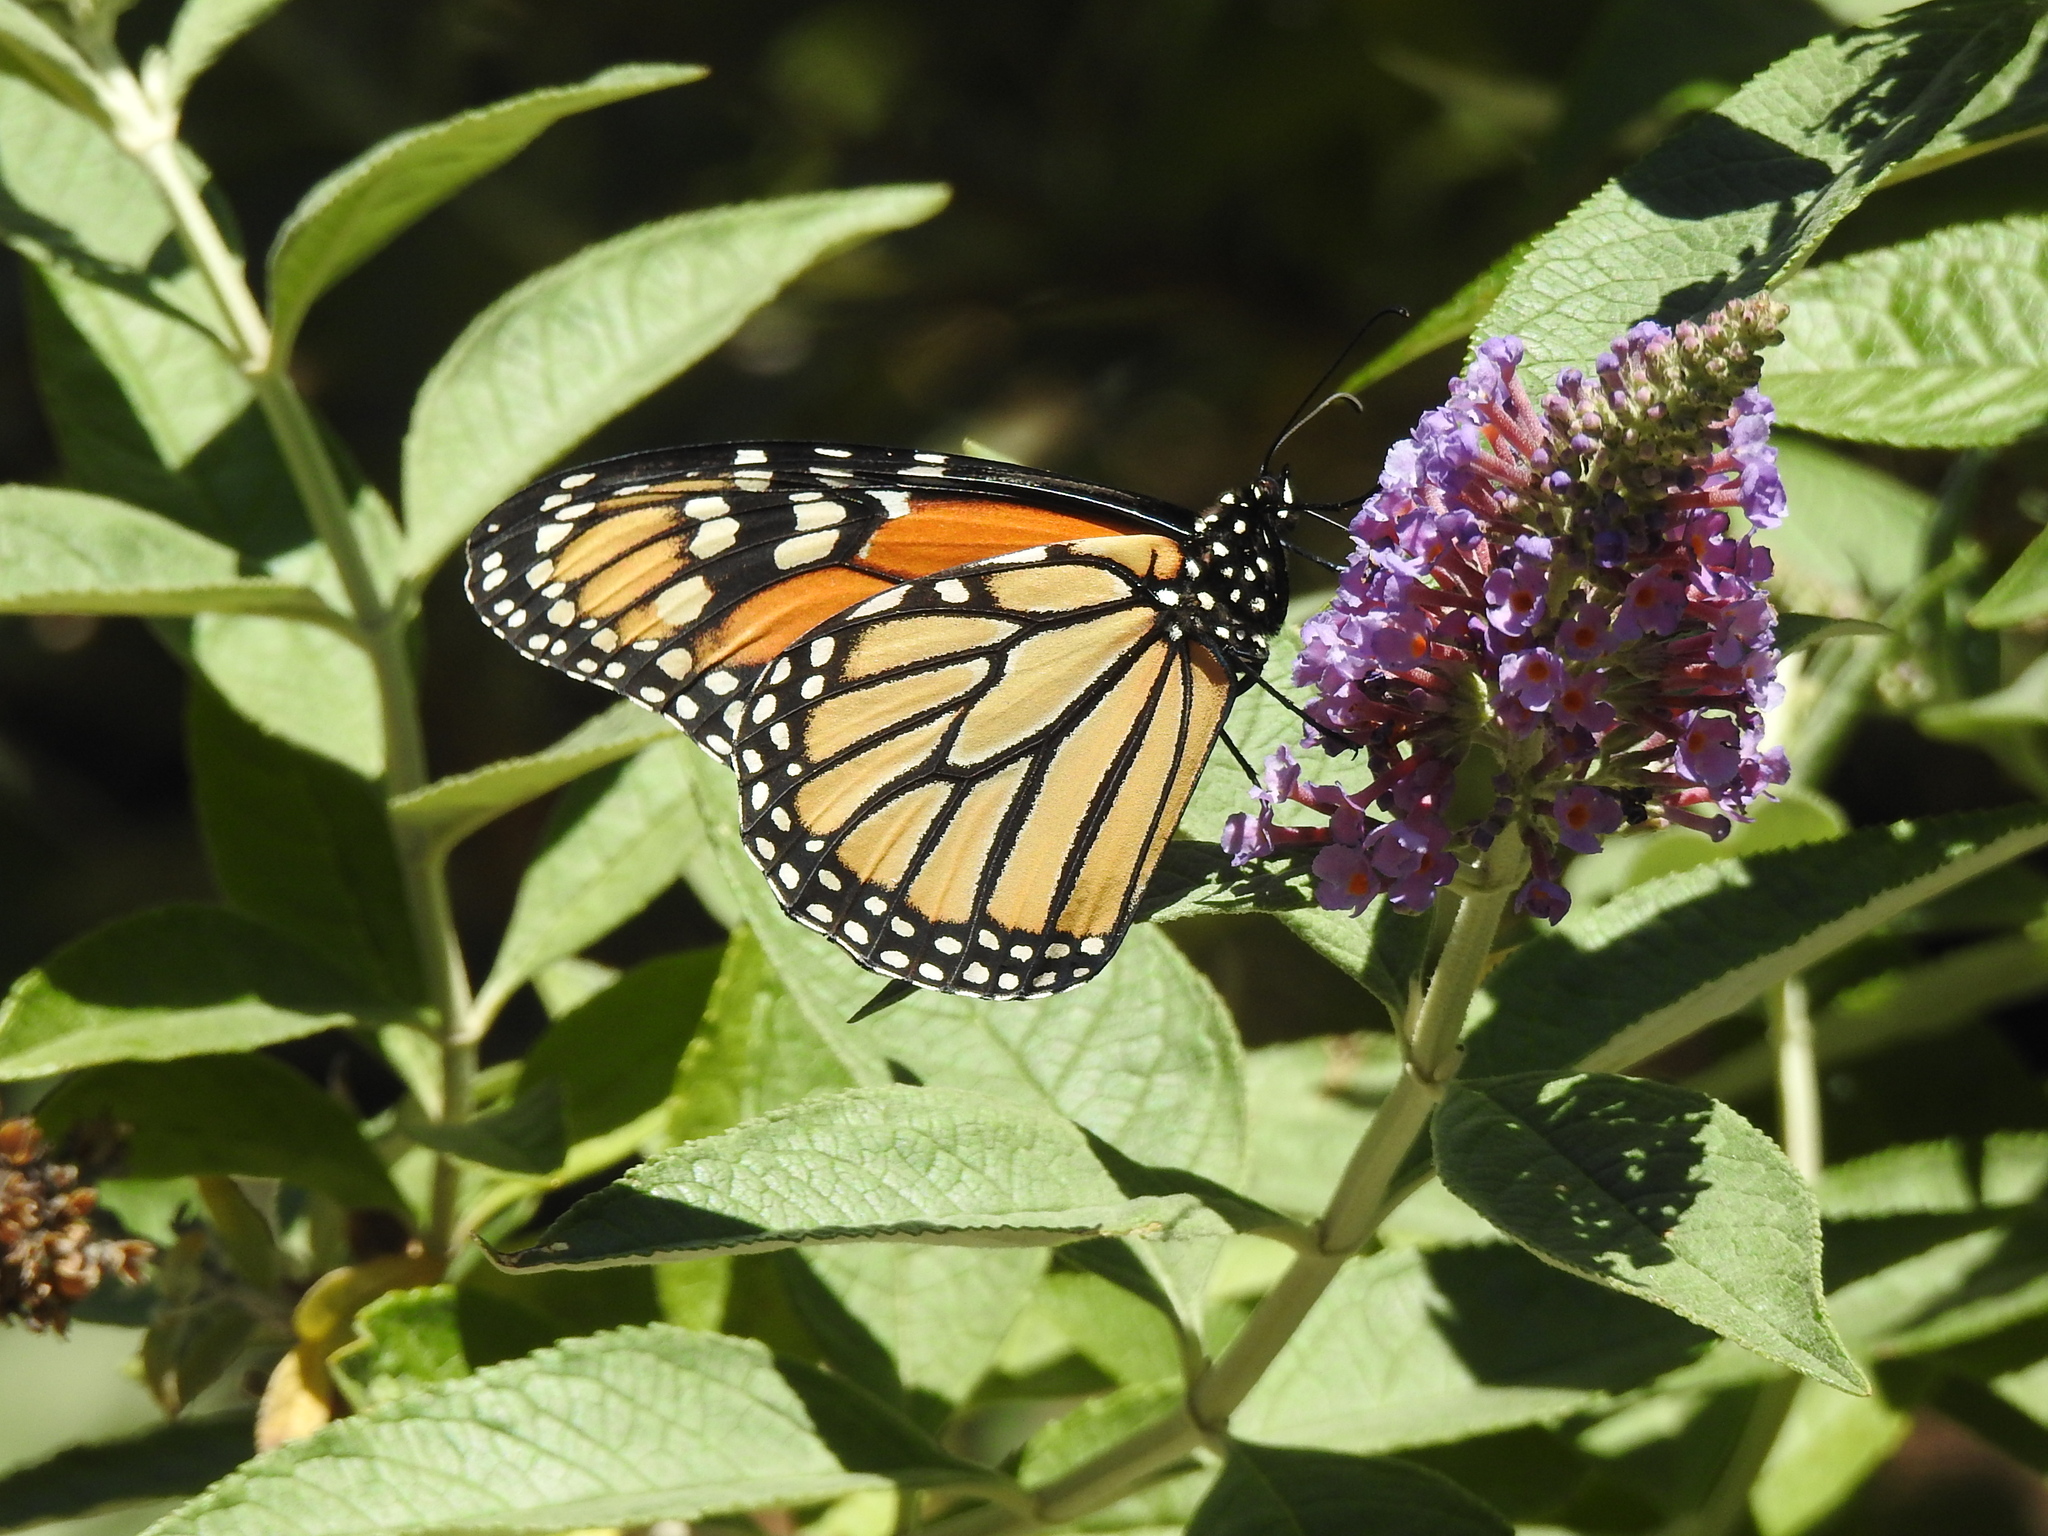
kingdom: Animalia
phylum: Arthropoda
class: Insecta
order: Lepidoptera
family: Nymphalidae
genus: Danaus
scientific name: Danaus plexippus
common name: Monarch
